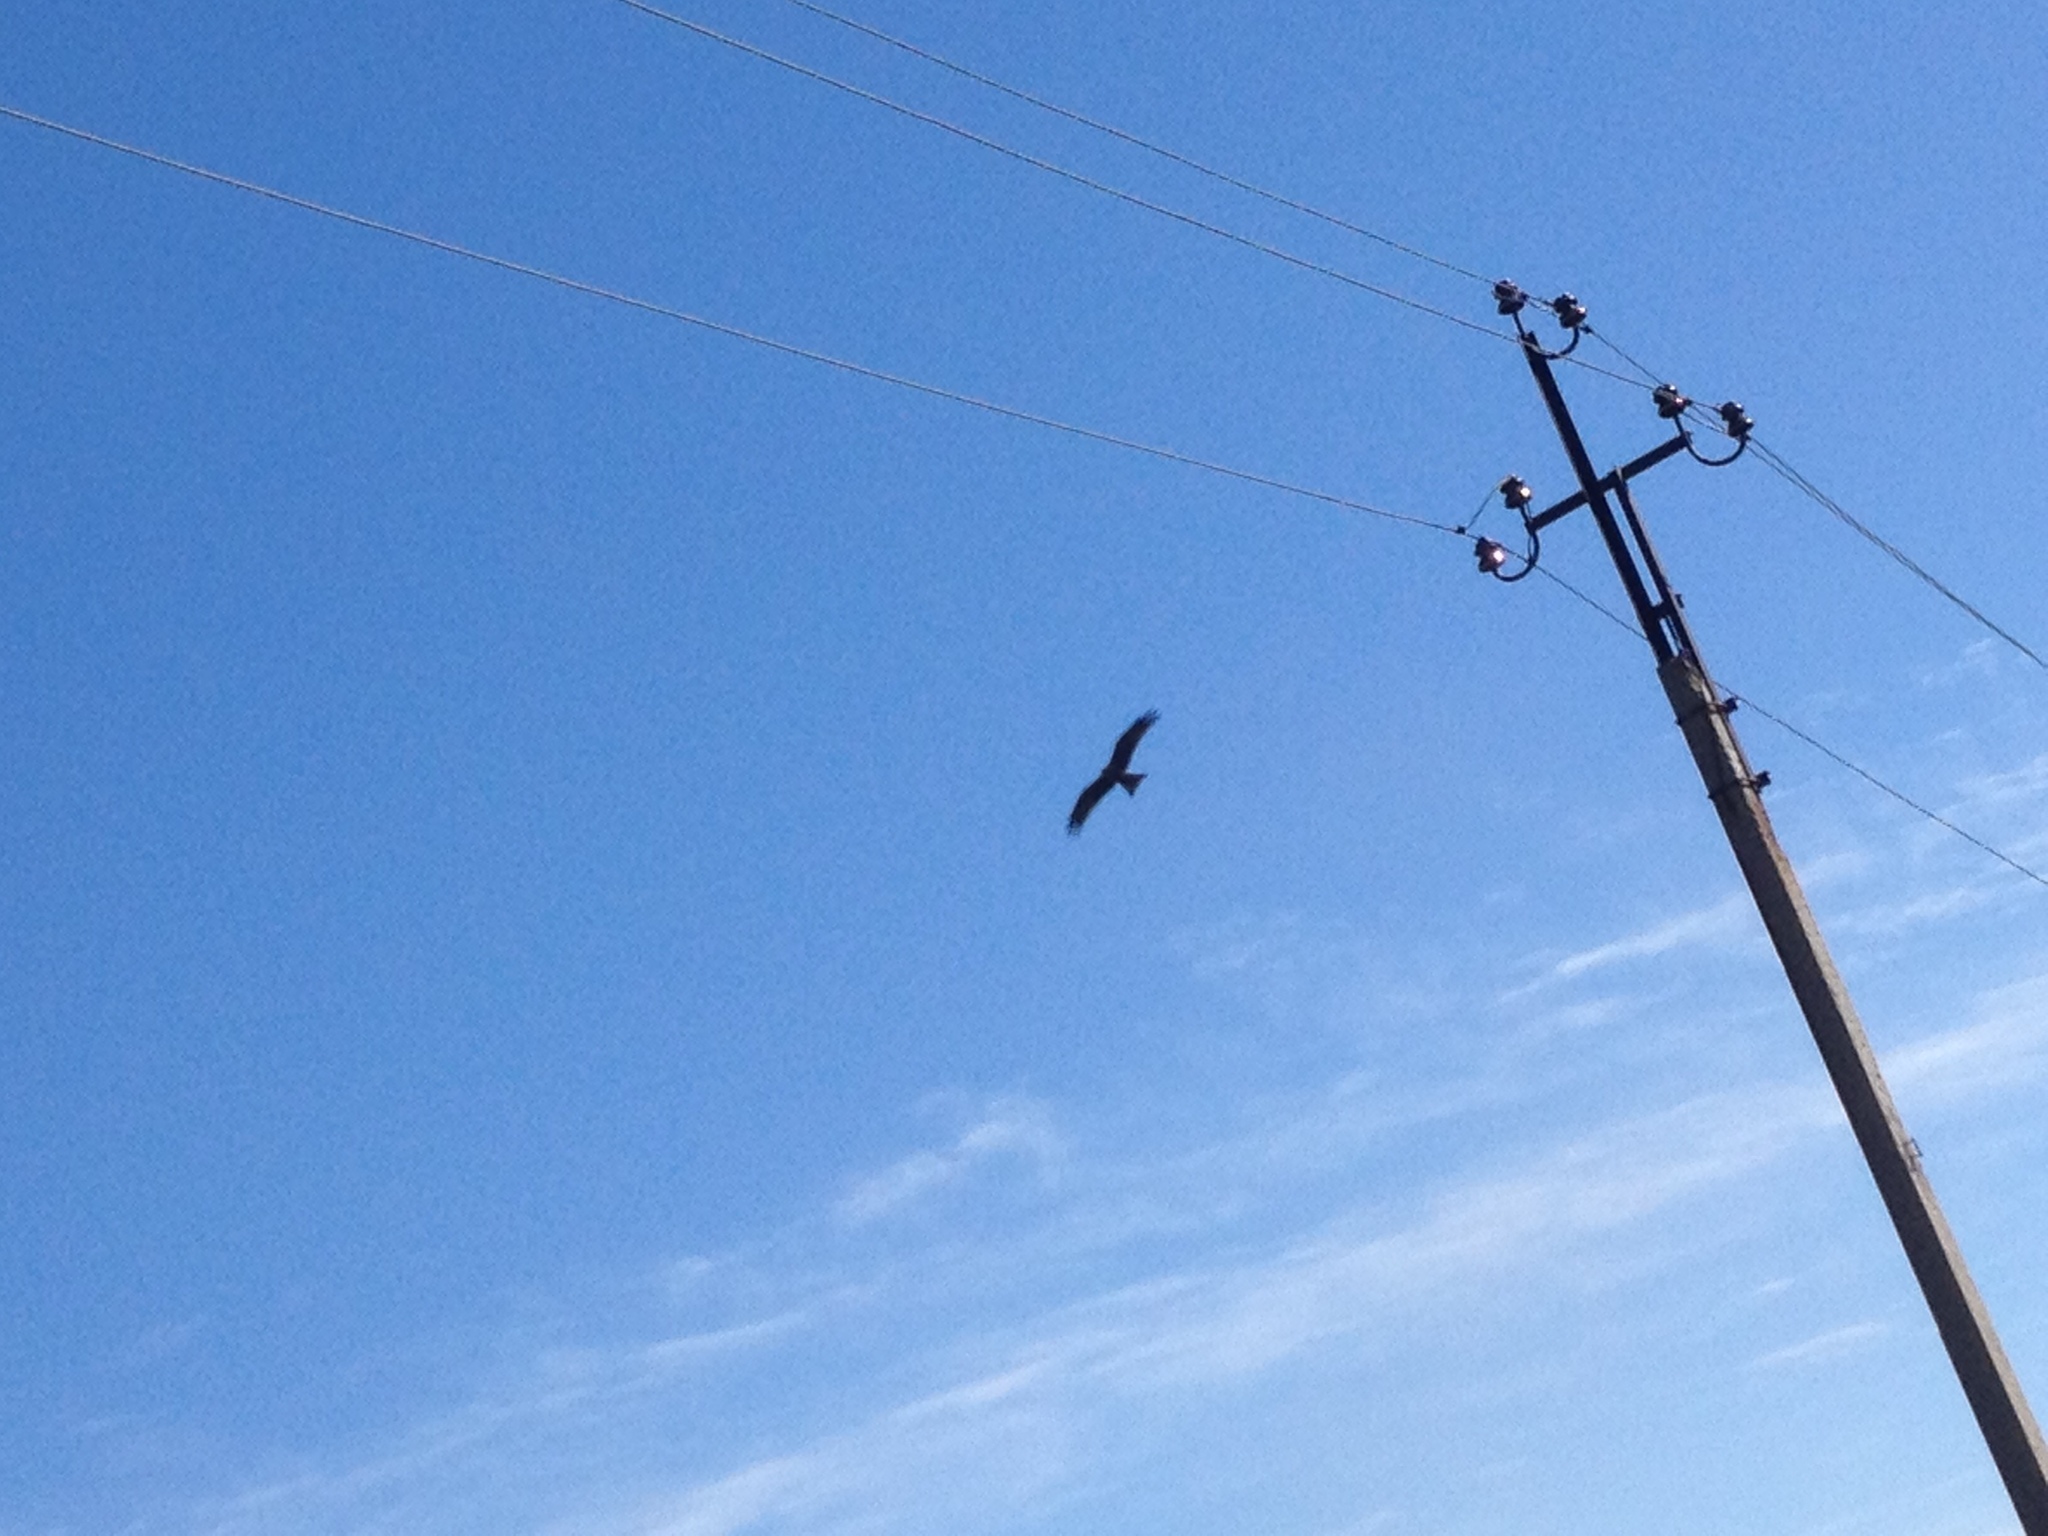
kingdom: Animalia
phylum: Chordata
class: Aves
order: Accipitriformes
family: Accipitridae
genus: Milvus
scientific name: Milvus migrans
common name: Black kite
